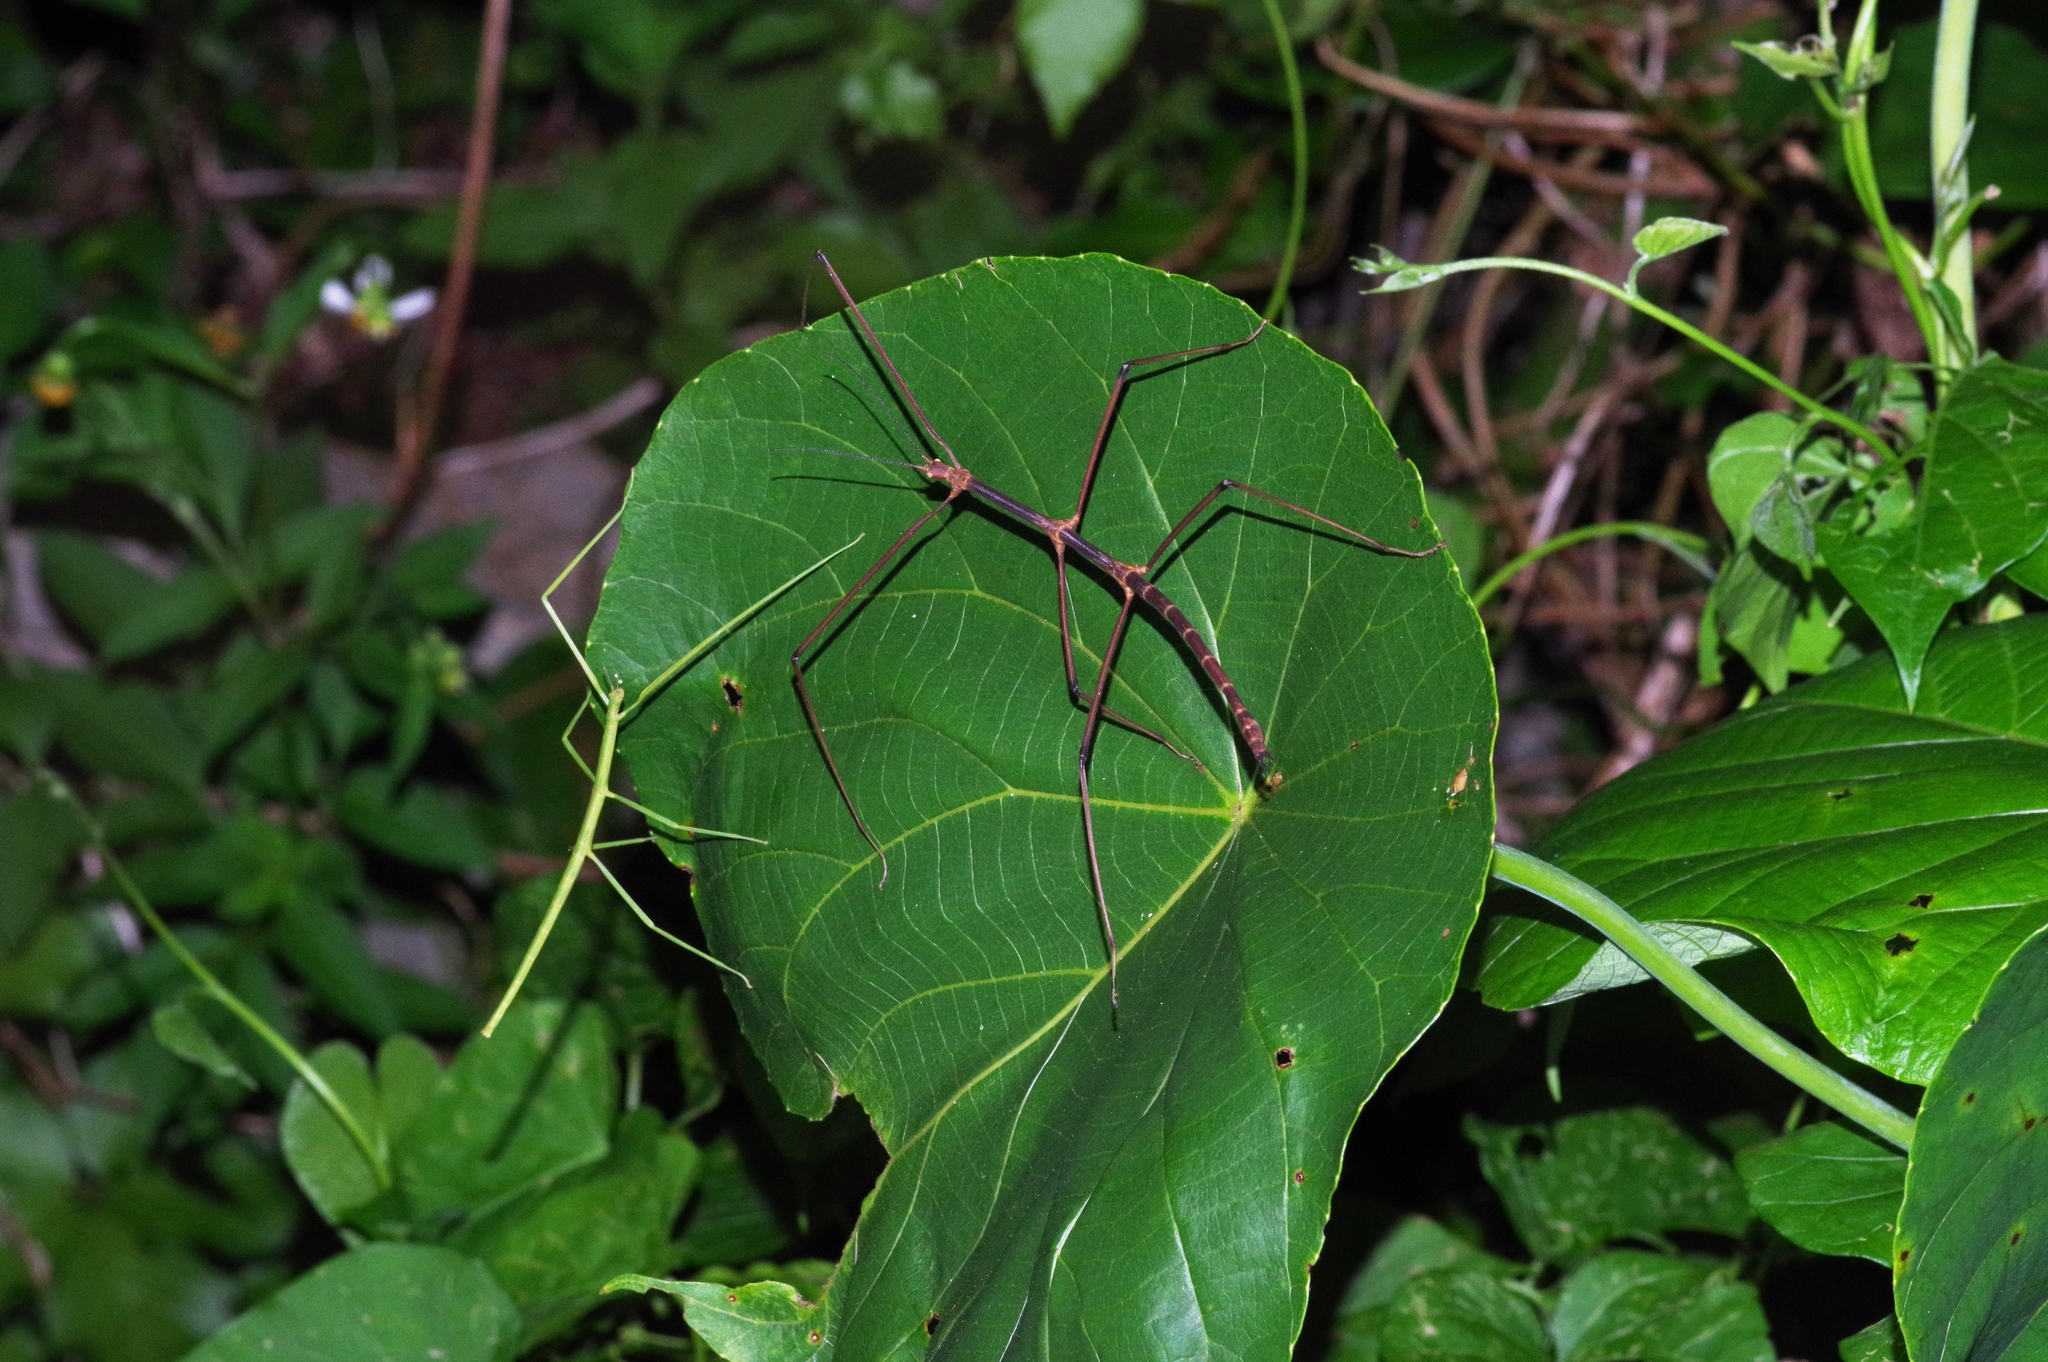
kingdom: Animalia
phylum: Arthropoda
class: Insecta
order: Phasmida
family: Phasmatidae
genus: Entoria
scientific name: Entoria miyakoensis
